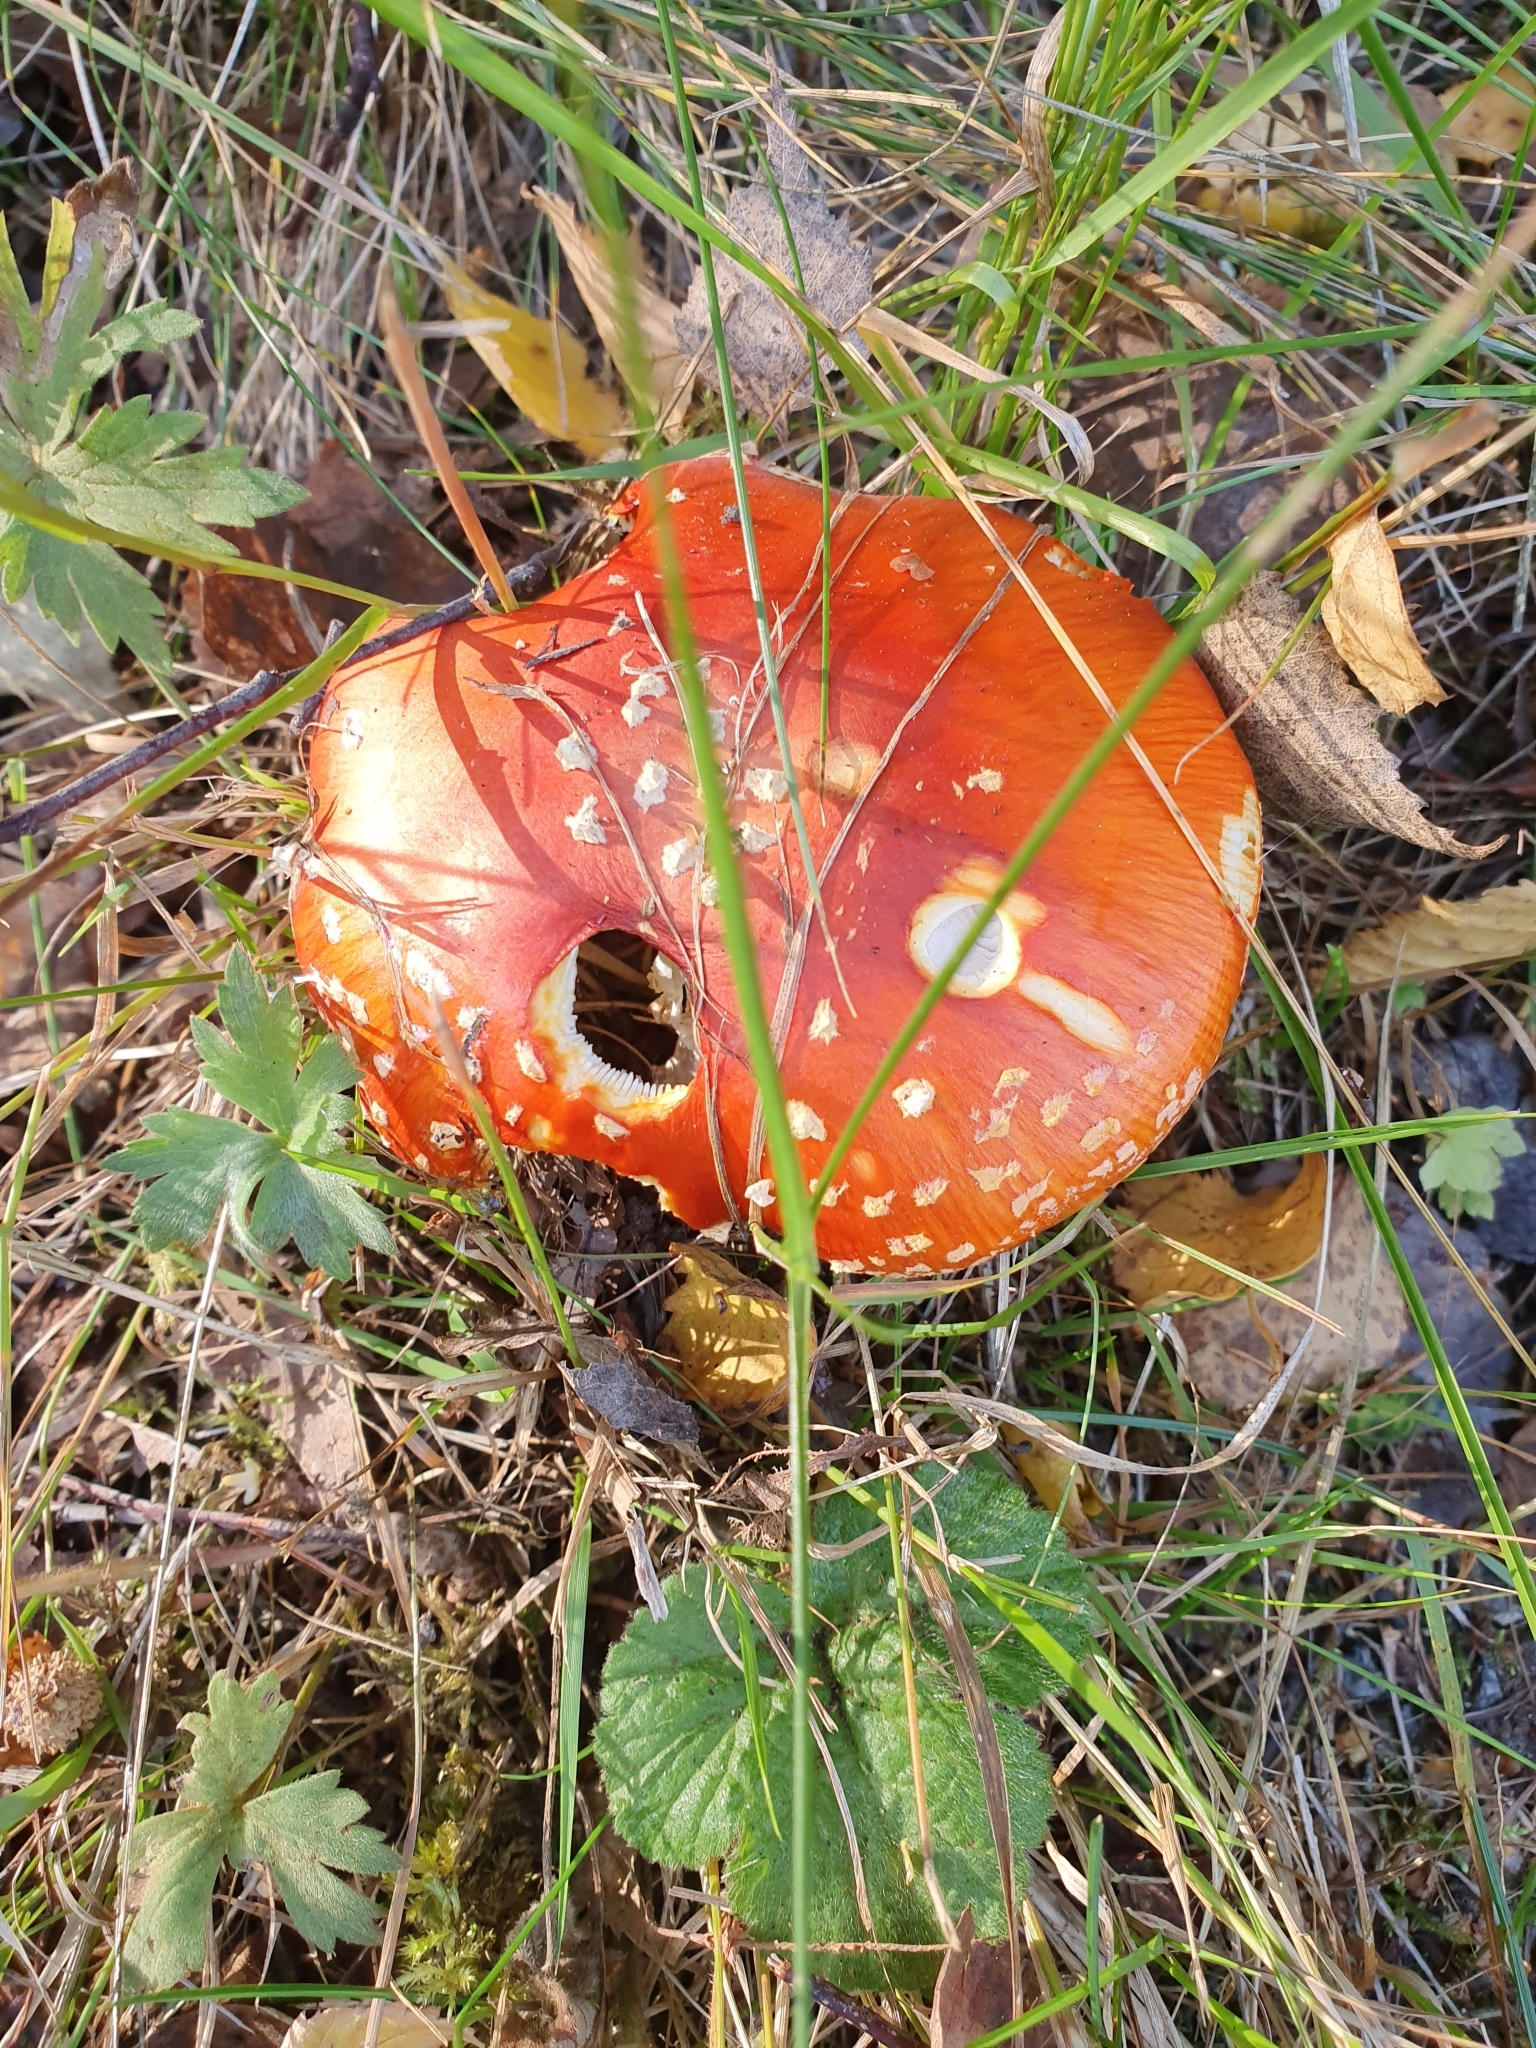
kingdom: Fungi
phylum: Basidiomycota
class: Agaricomycetes
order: Agaricales
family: Amanitaceae
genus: Amanita
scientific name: Amanita muscaria
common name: Fly agaric
